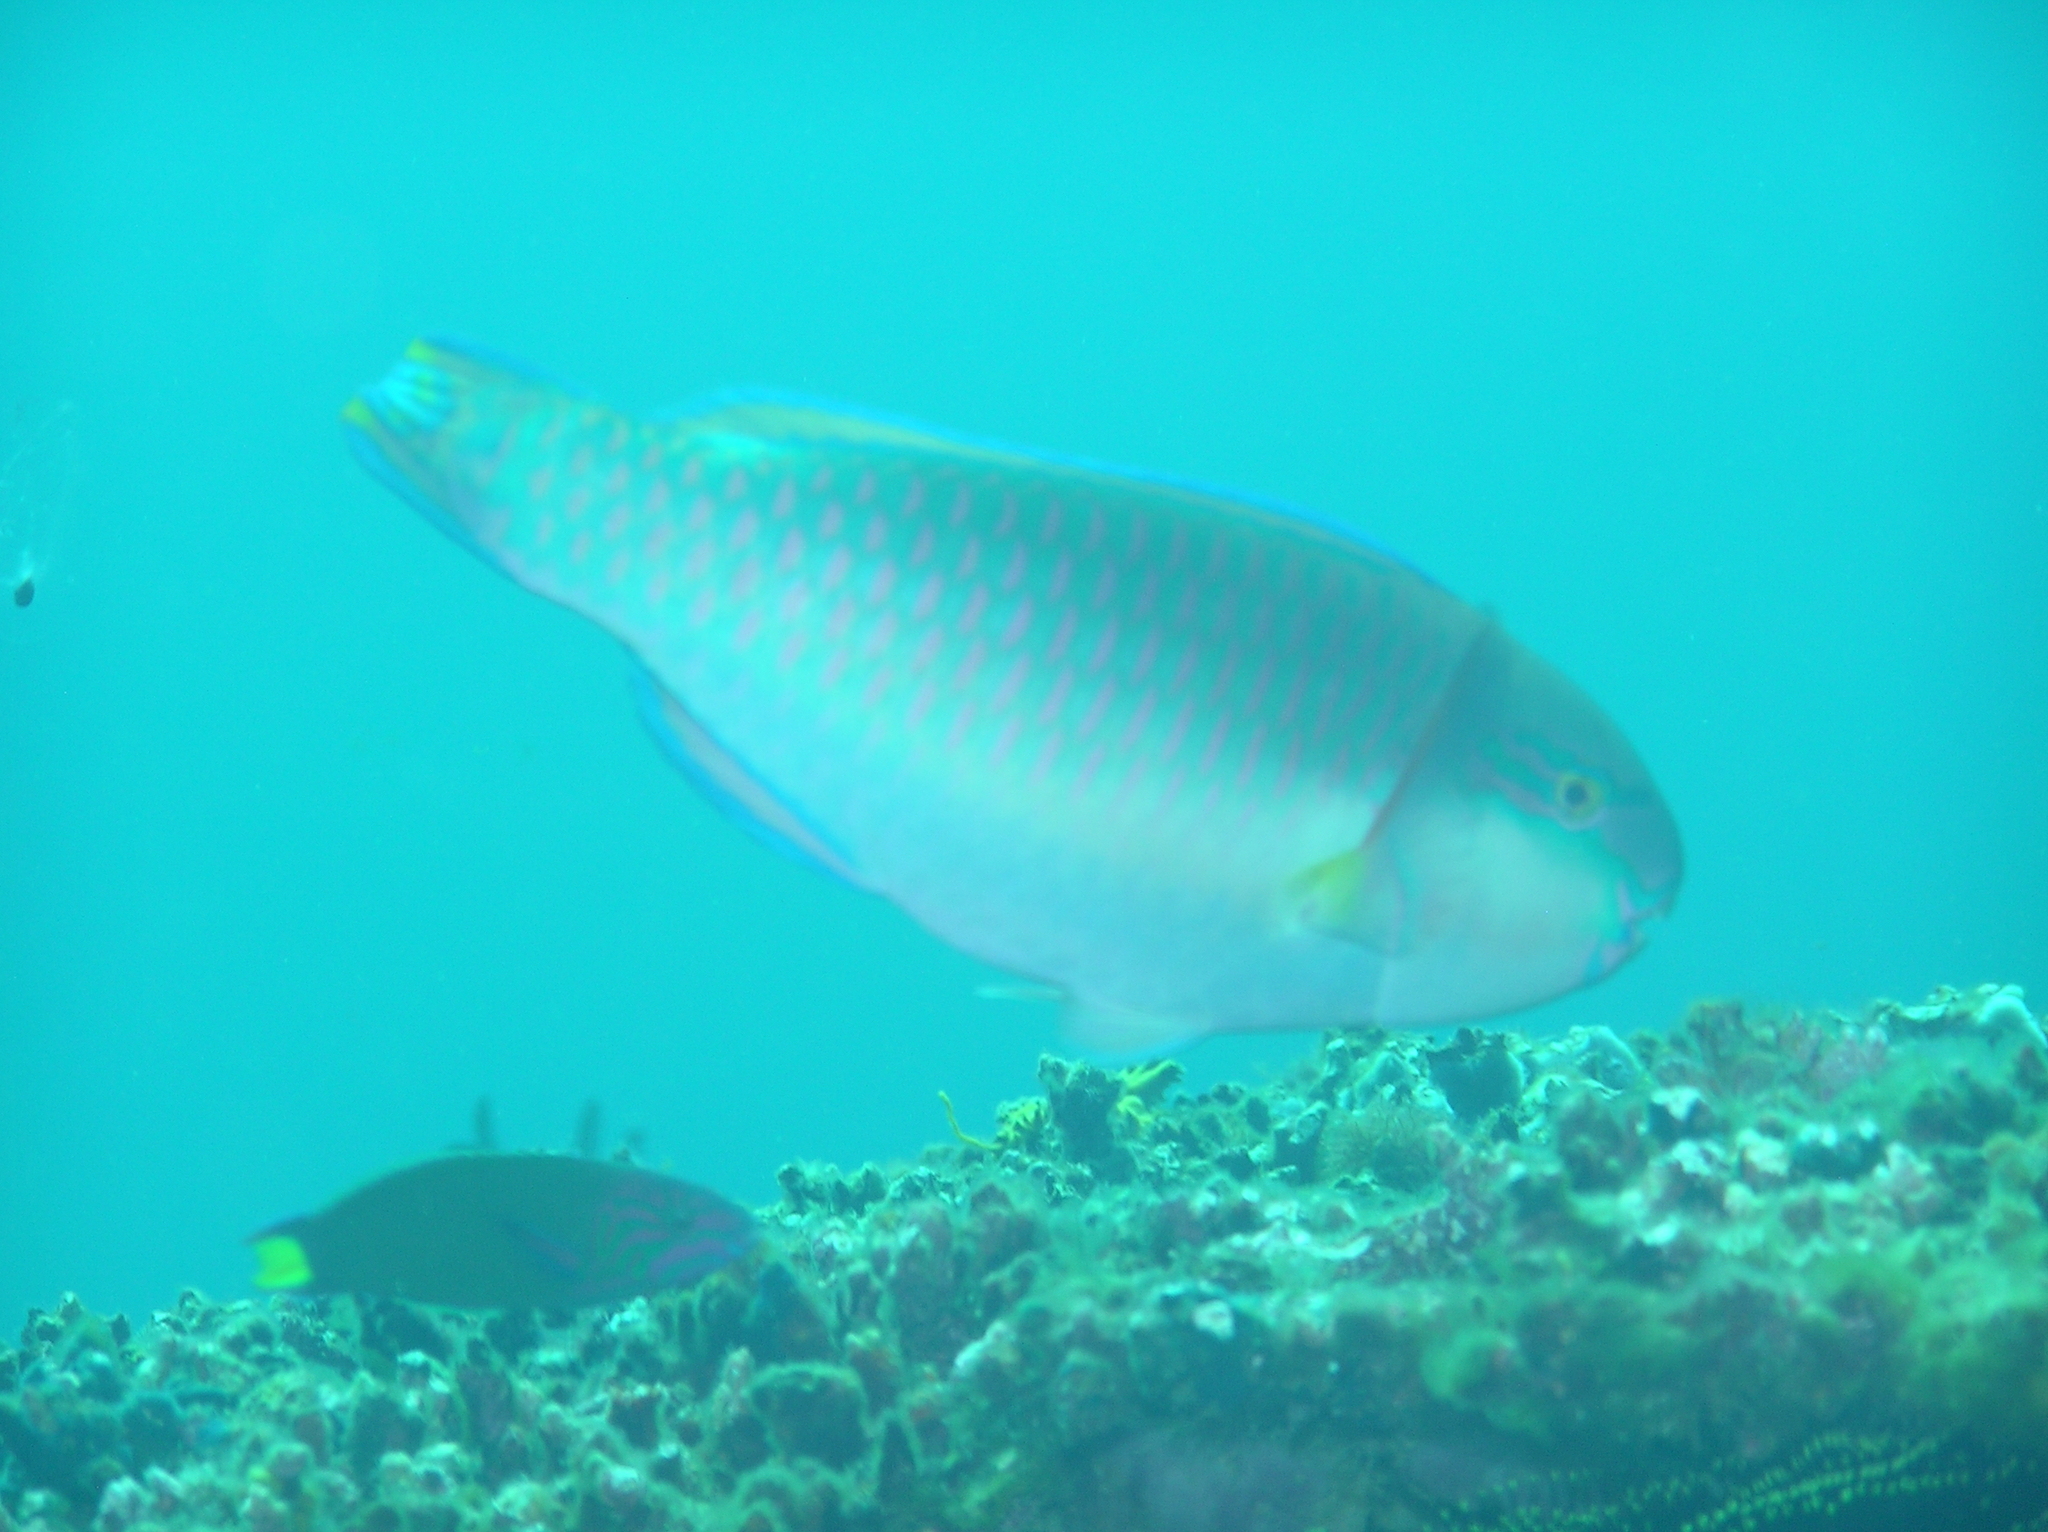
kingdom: Animalia
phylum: Chordata
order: Perciformes
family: Scaridae
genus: Chlorurus
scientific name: Chlorurus capistratoides
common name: Pink-margined parrotfish
